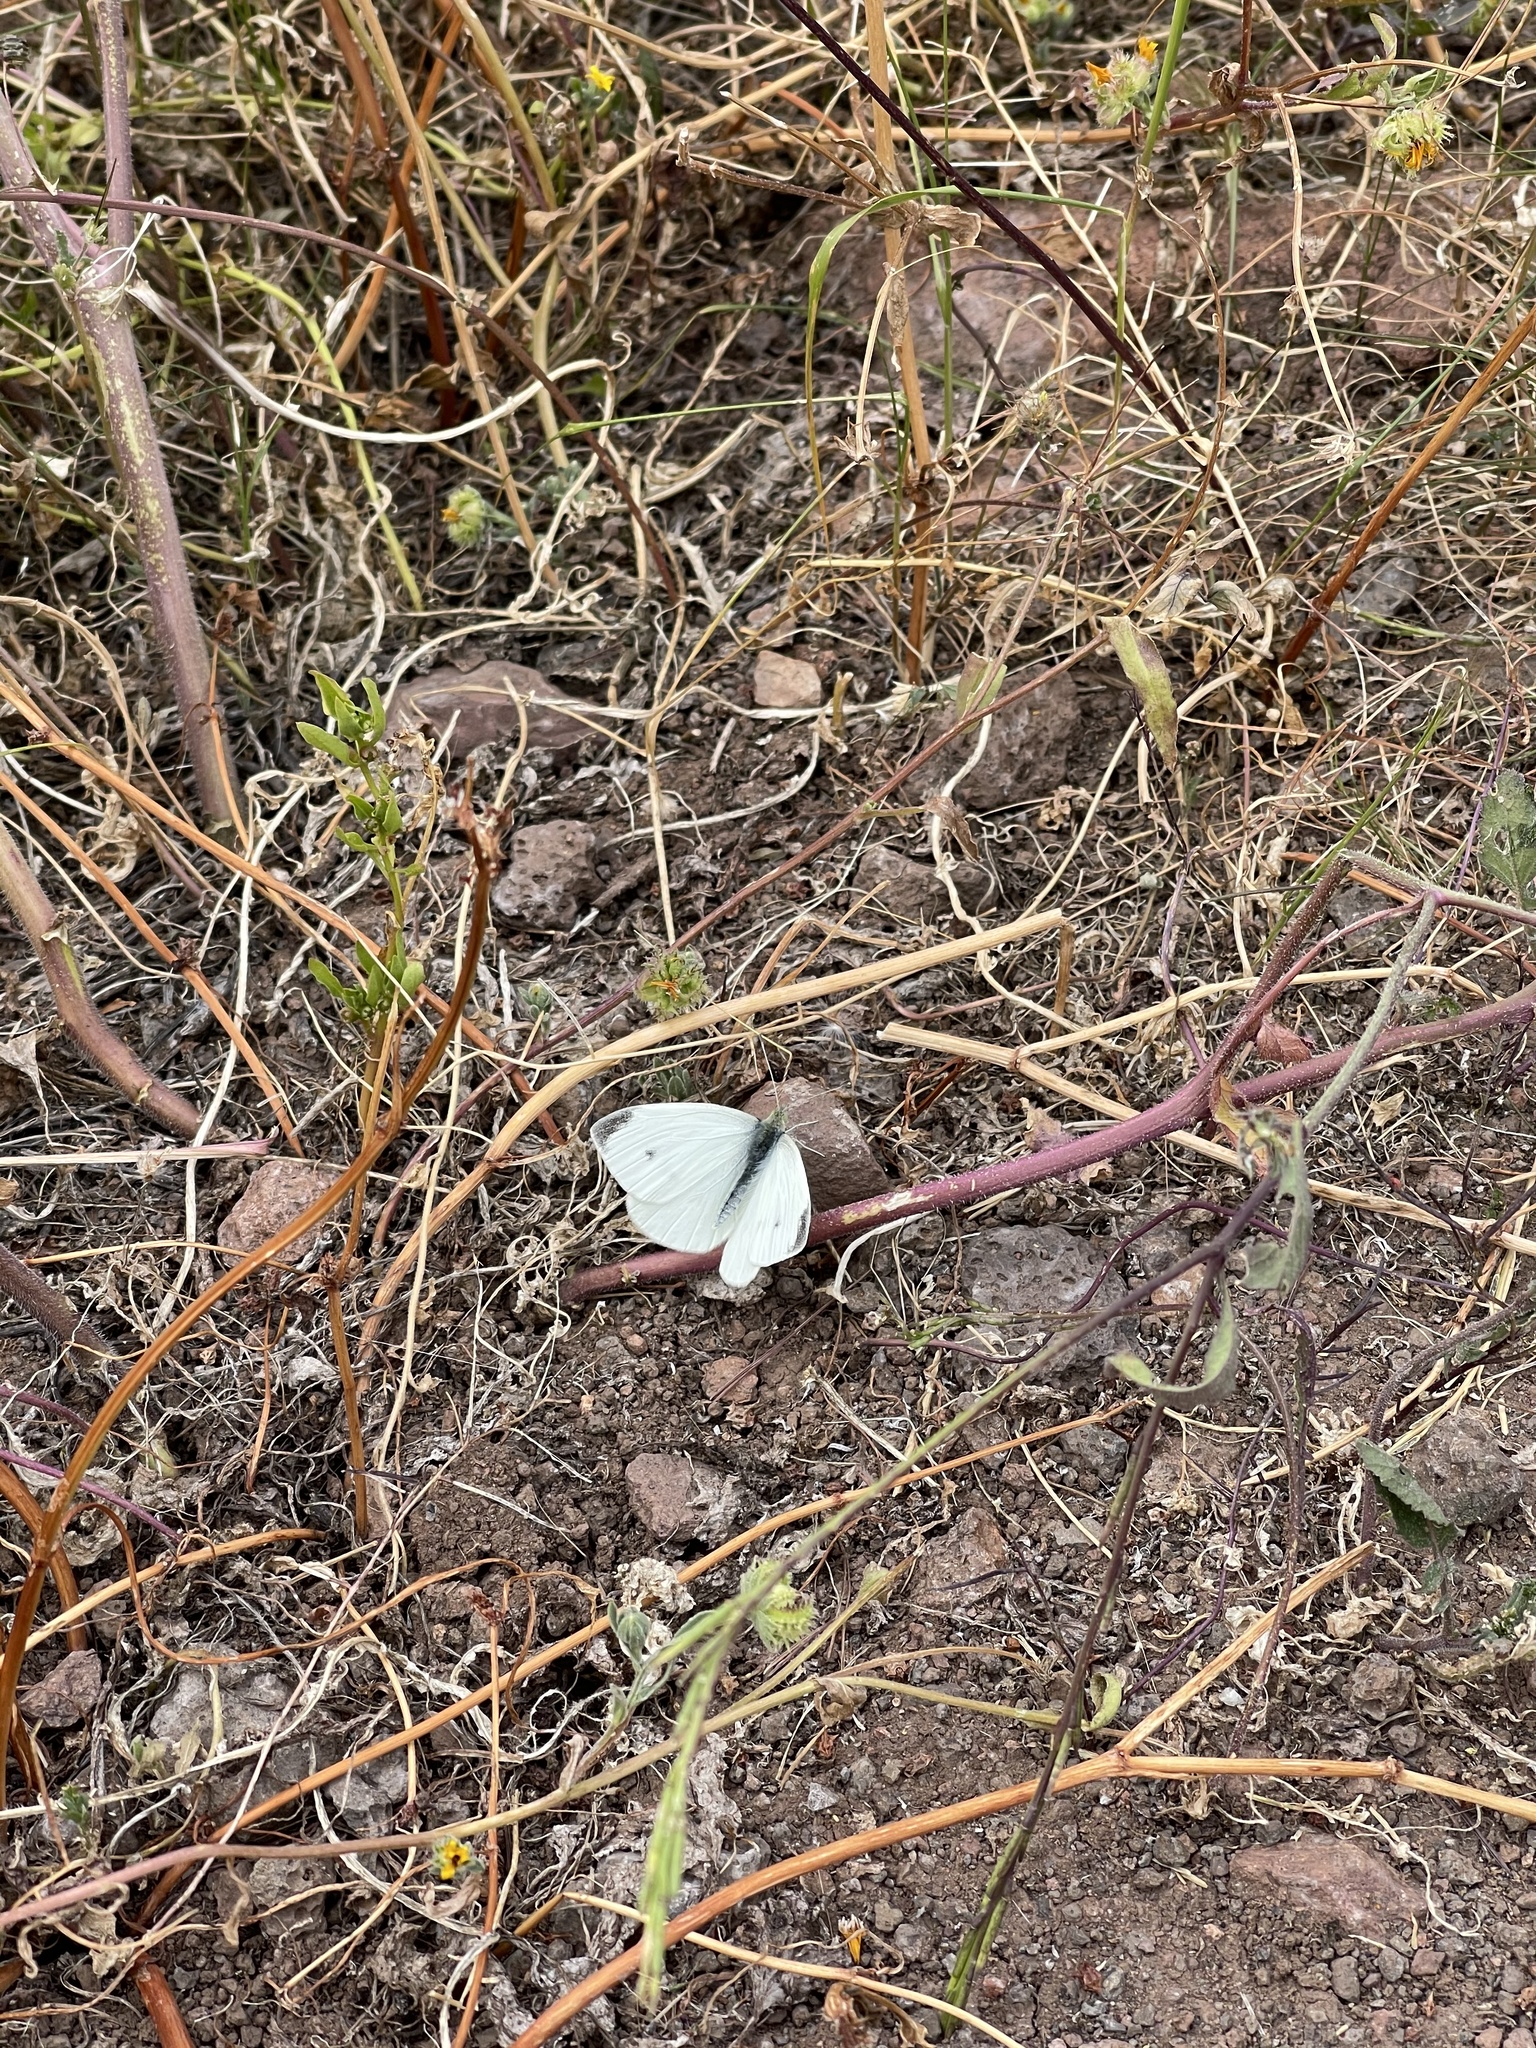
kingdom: Animalia
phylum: Arthropoda
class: Insecta
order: Lepidoptera
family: Pieridae
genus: Pieris
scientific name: Pieris rapae
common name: Small white
